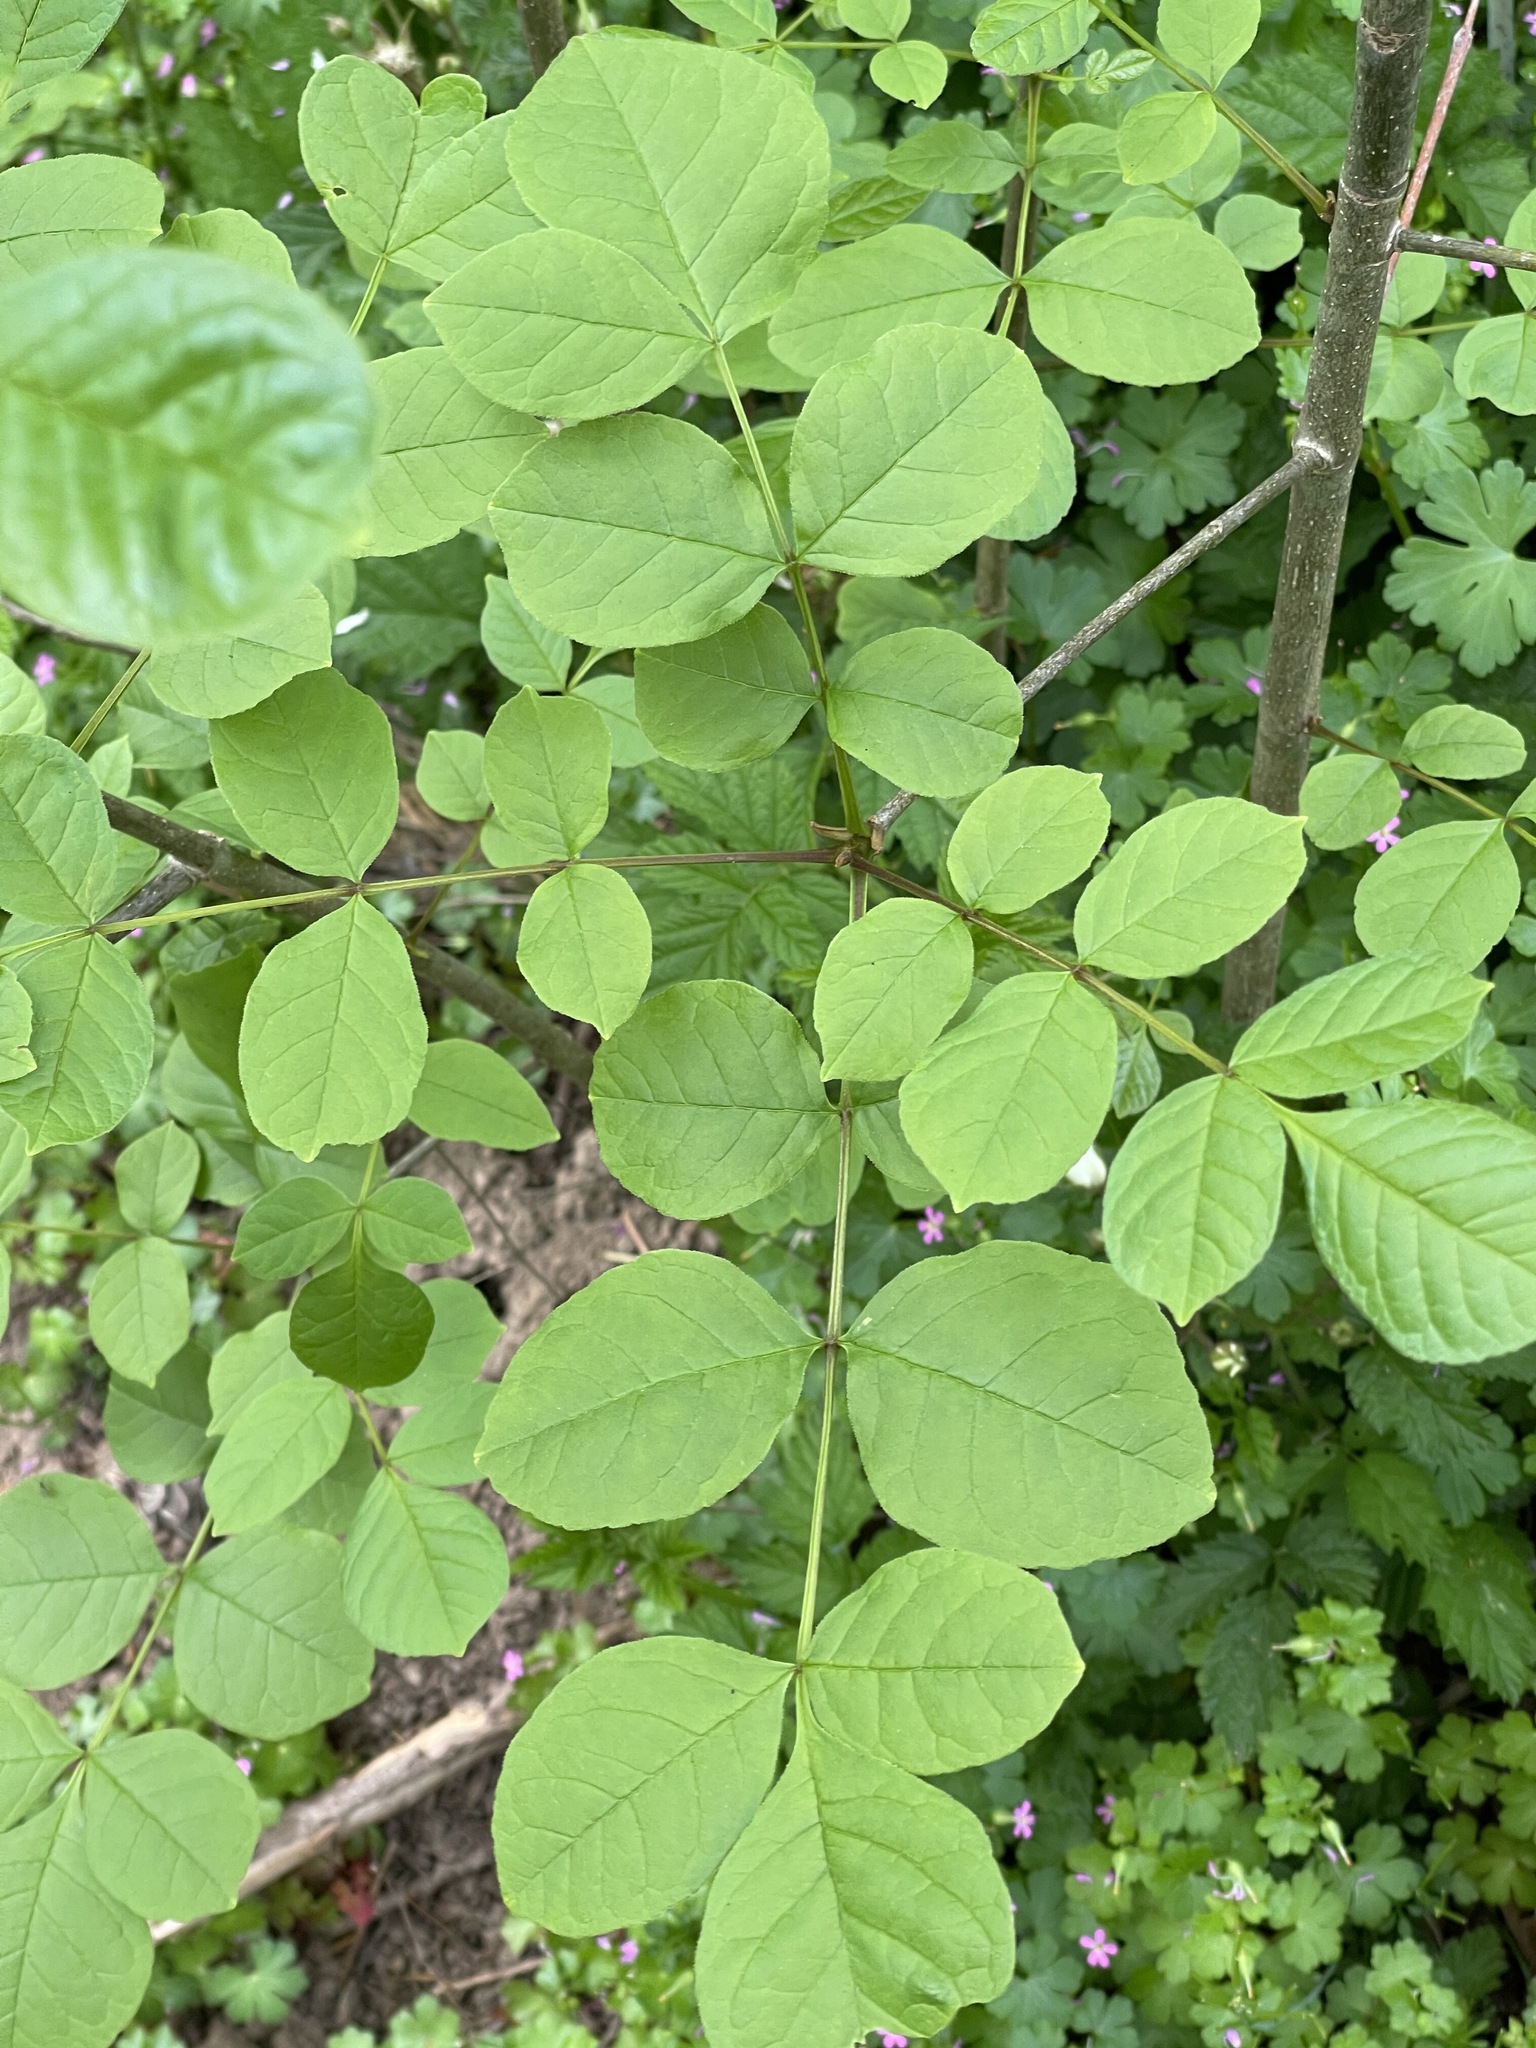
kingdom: Plantae
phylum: Tracheophyta
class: Magnoliopsida
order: Lamiales
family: Oleaceae
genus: Fraxinus
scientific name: Fraxinus latifolia
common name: Oregon ash
